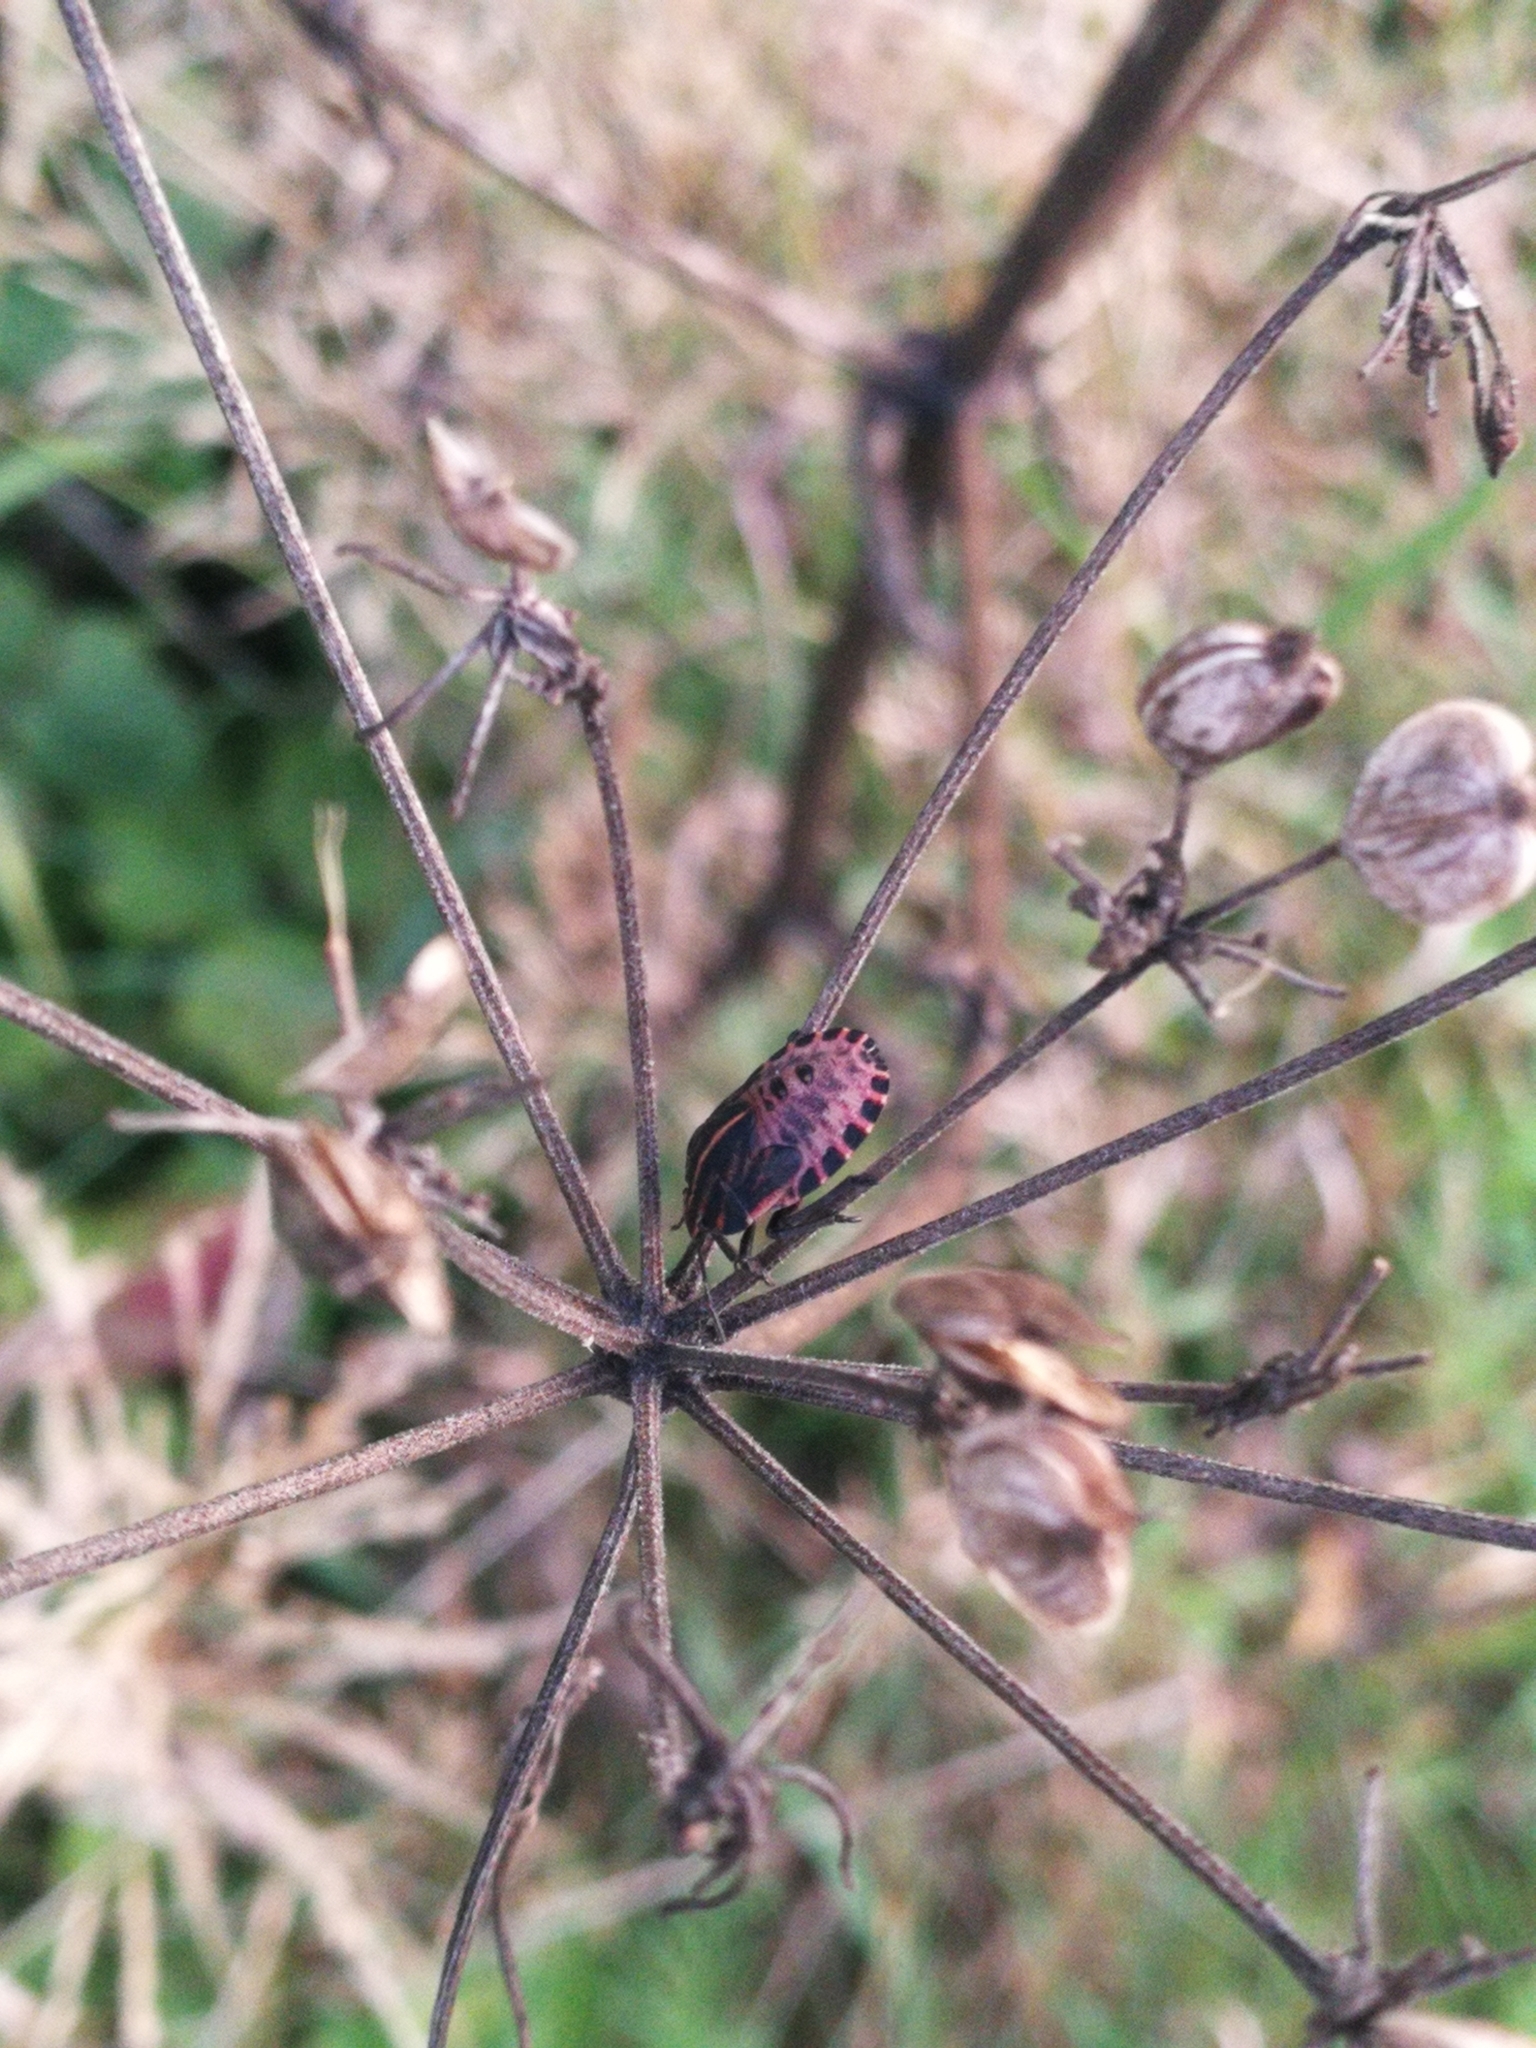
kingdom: Animalia
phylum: Arthropoda
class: Insecta
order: Hemiptera
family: Pentatomidae
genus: Graphosoma
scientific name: Graphosoma italicum
